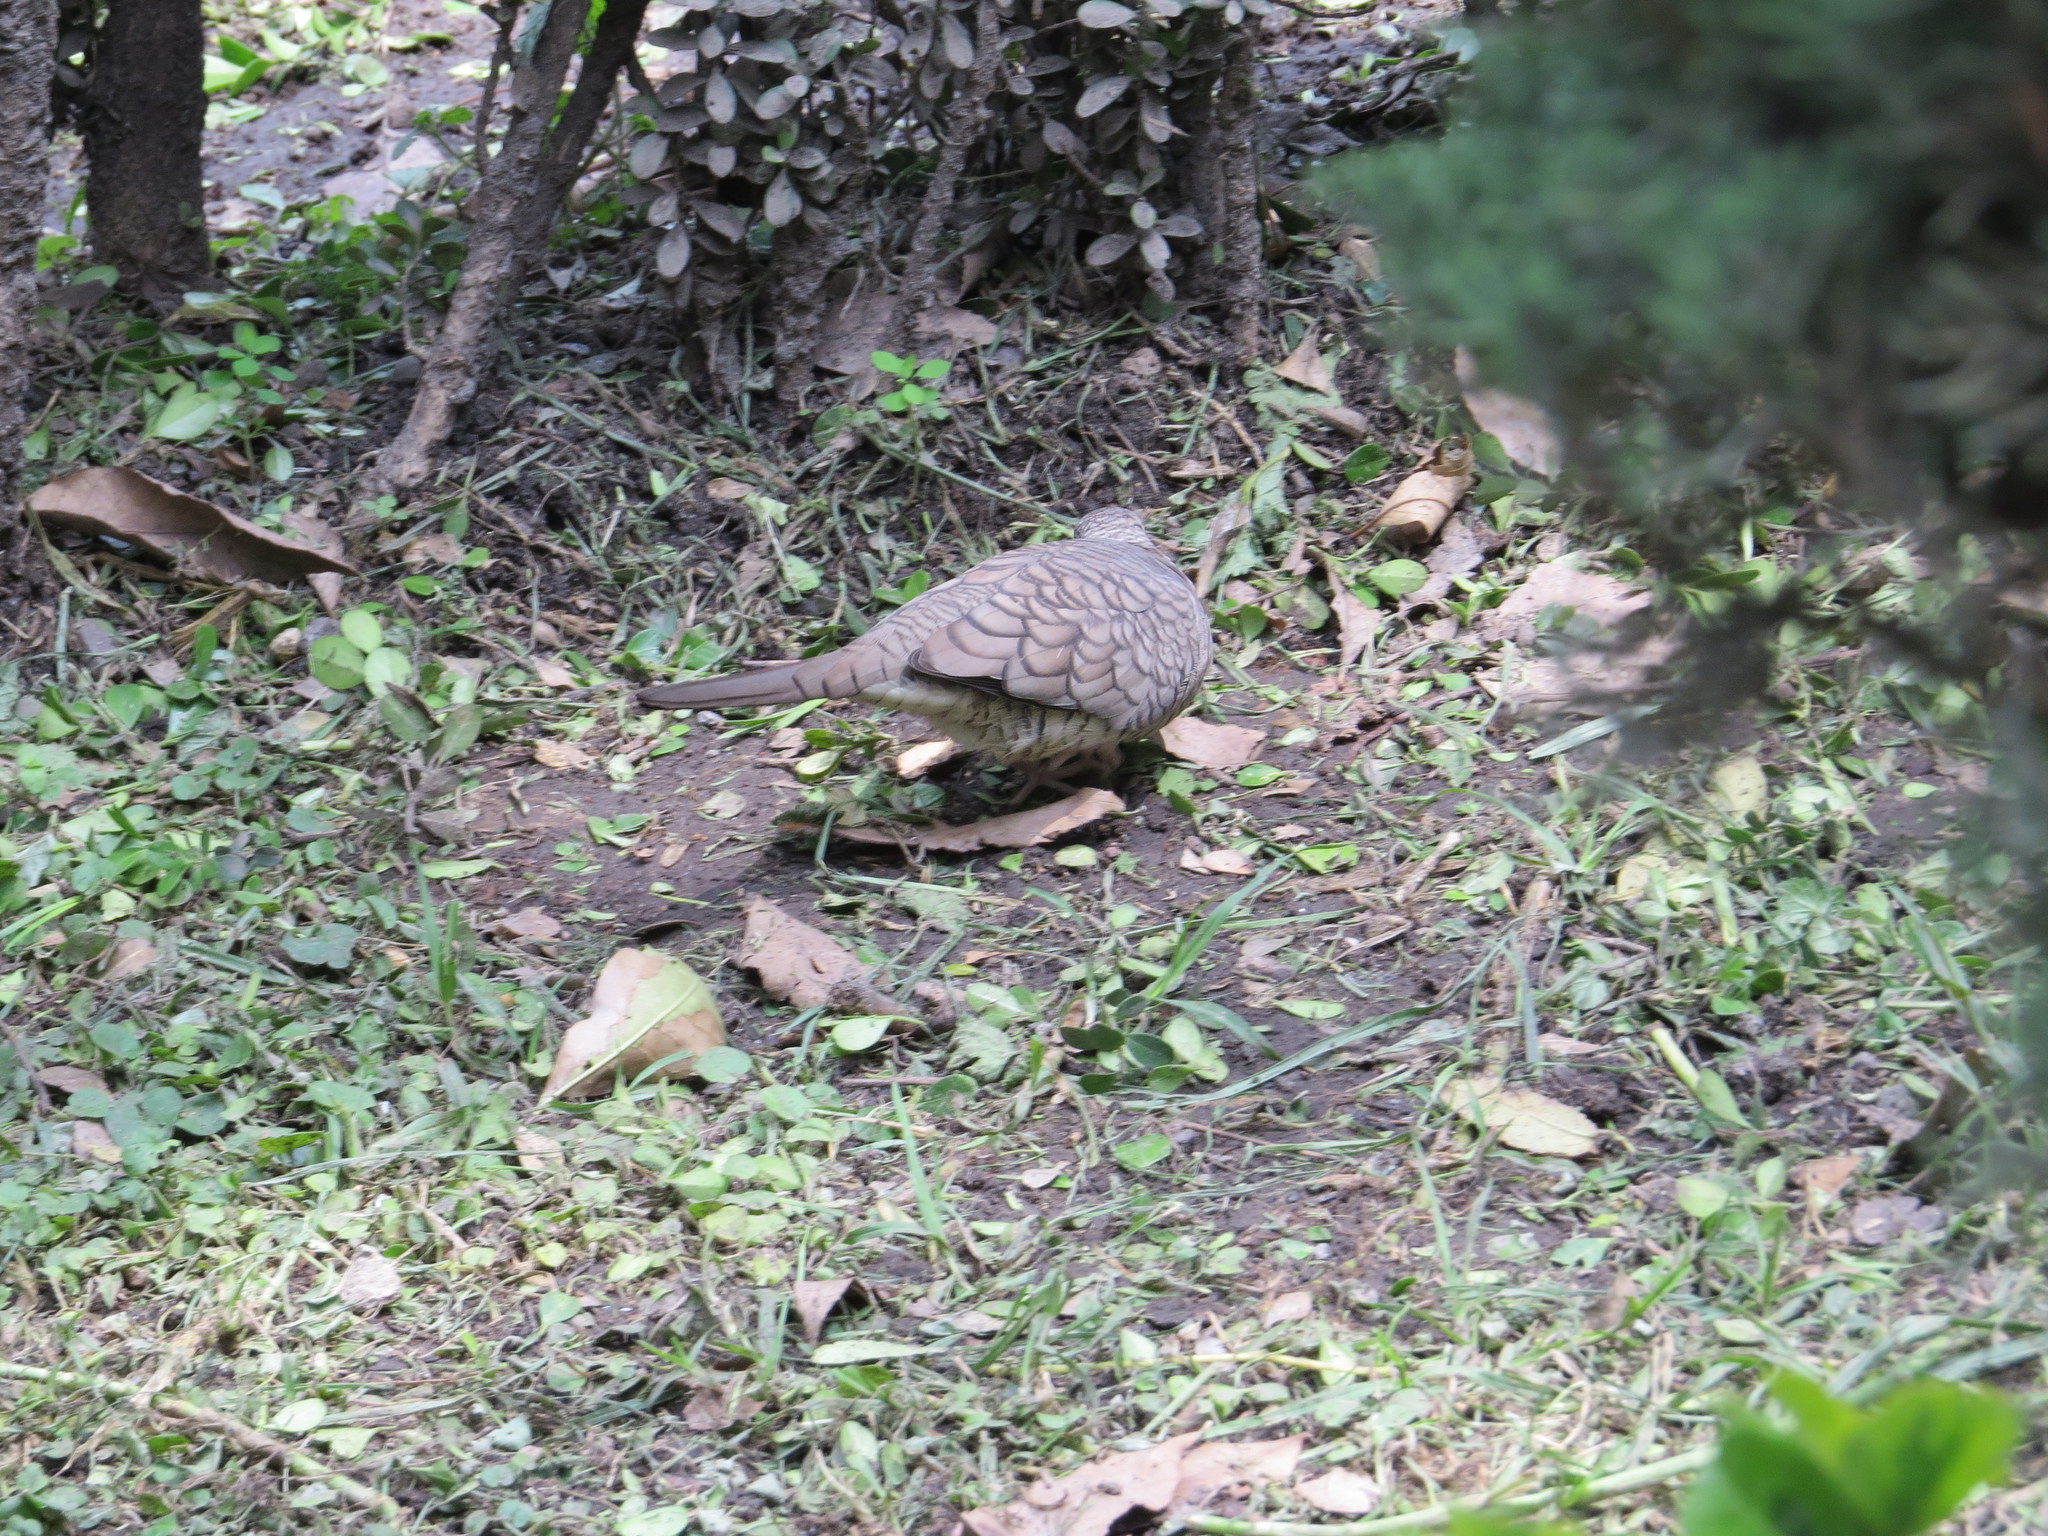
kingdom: Animalia
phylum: Chordata
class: Aves
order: Columbiformes
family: Columbidae
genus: Columbina
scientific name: Columbina inca
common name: Inca dove
